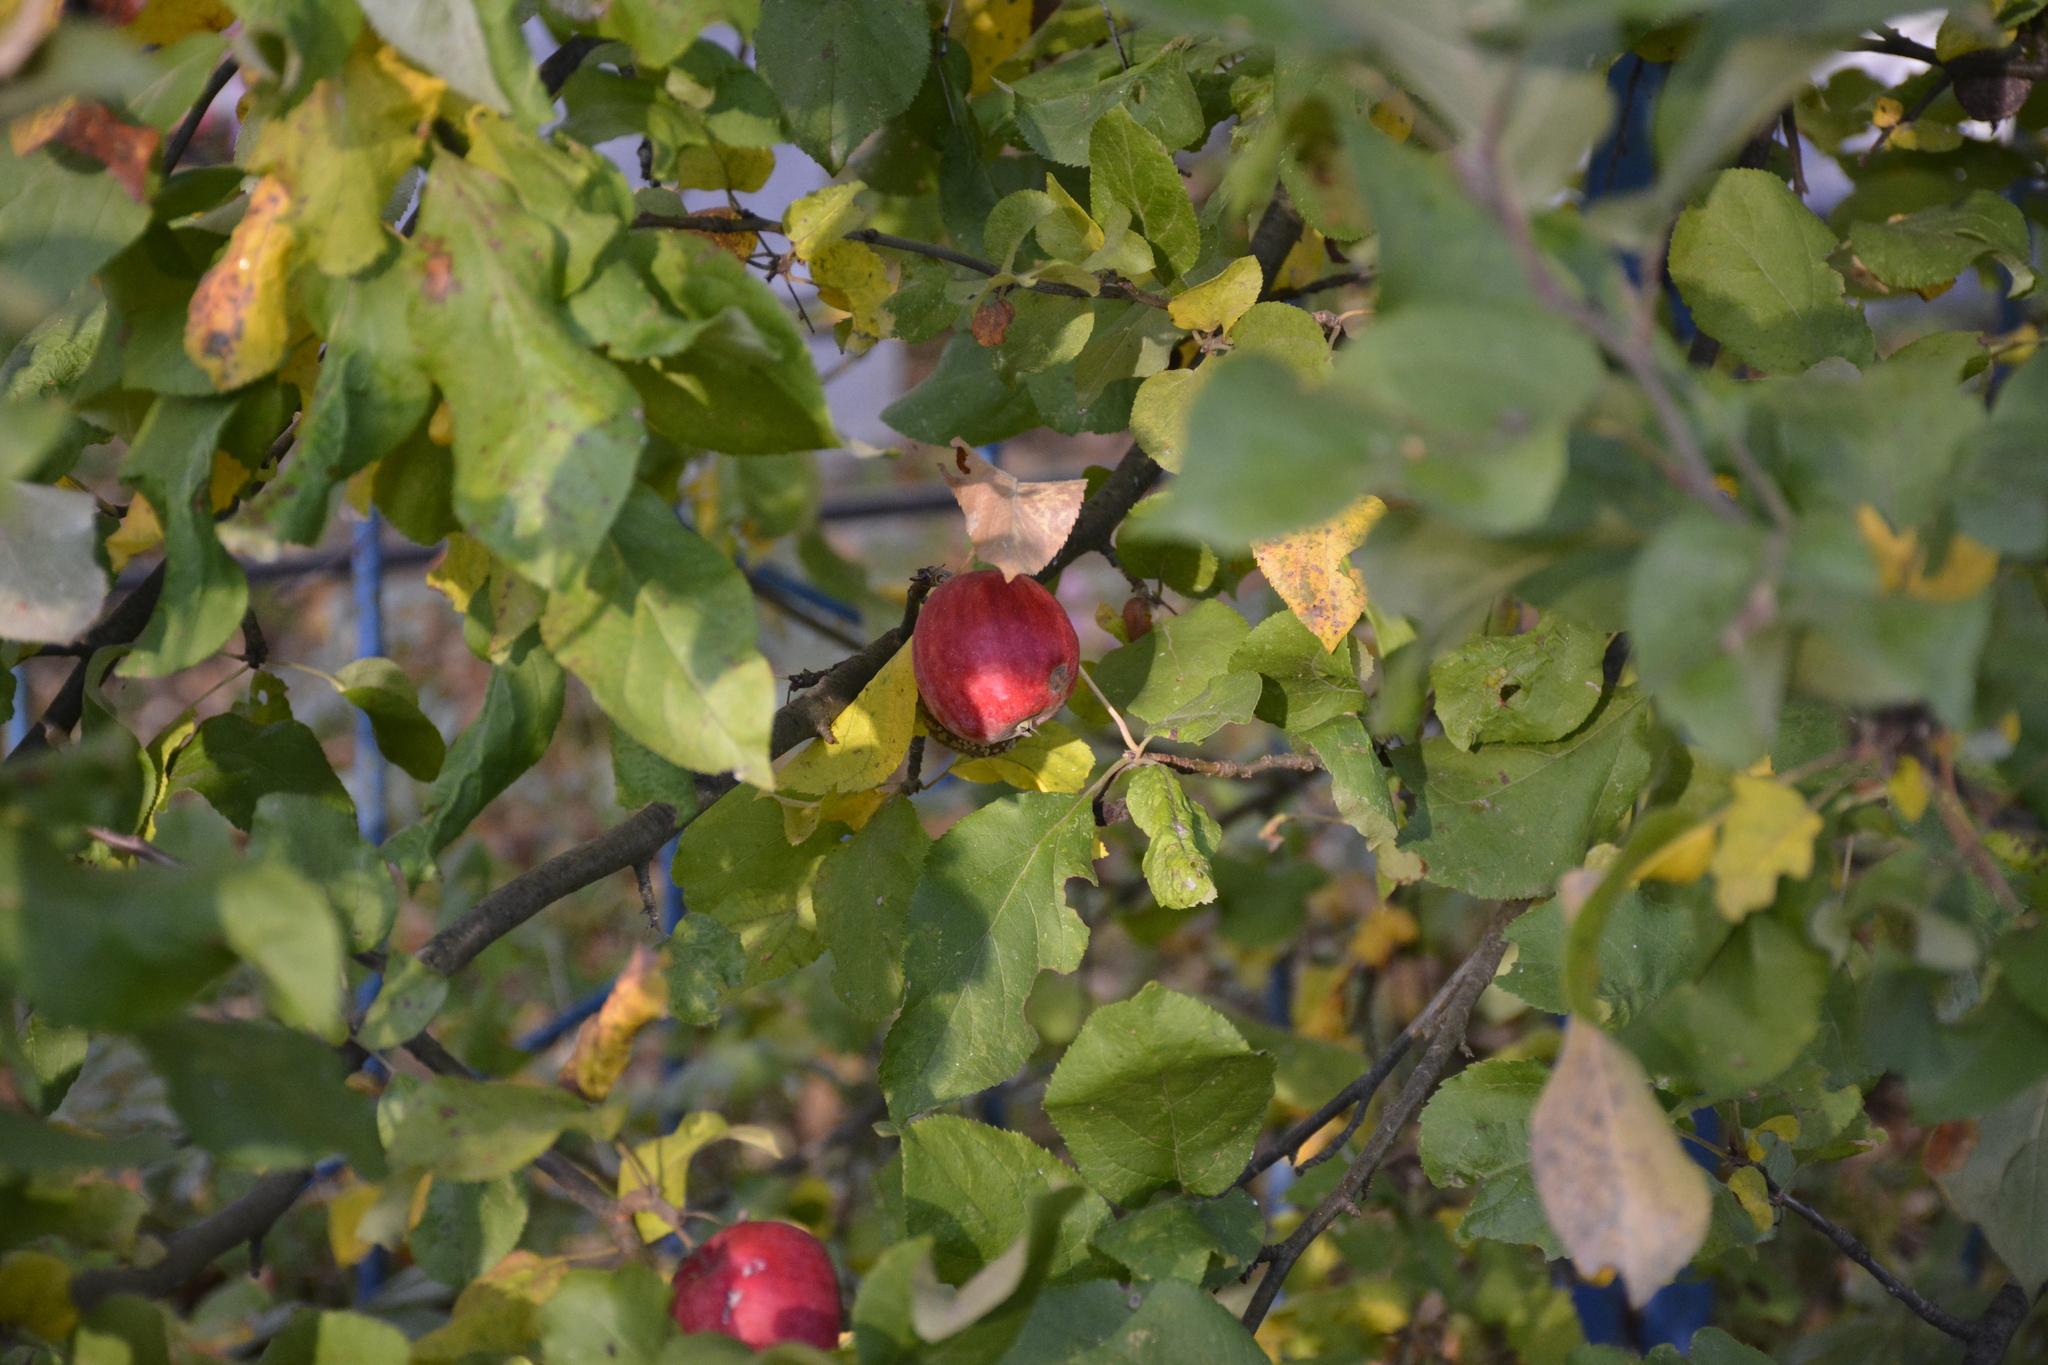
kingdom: Plantae
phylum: Tracheophyta
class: Magnoliopsida
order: Rosales
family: Rosaceae
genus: Malus
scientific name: Malus domestica
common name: Apple
